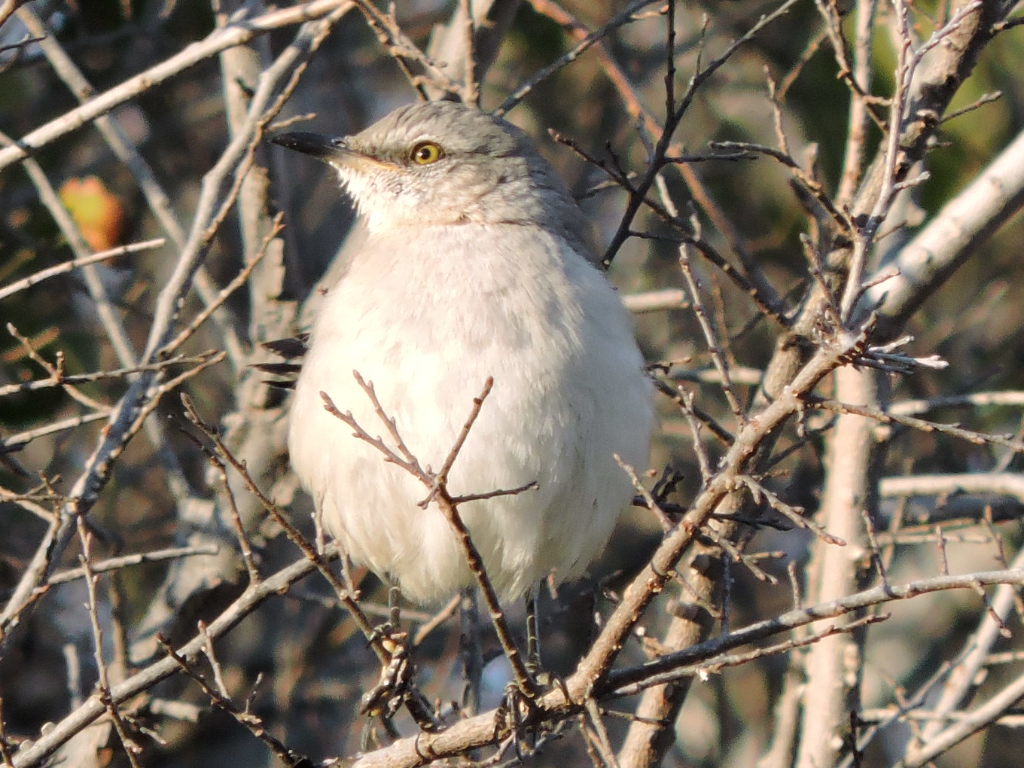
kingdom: Animalia
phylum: Chordata
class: Aves
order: Passeriformes
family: Mimidae
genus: Mimus
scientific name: Mimus polyglottos
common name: Northern mockingbird
